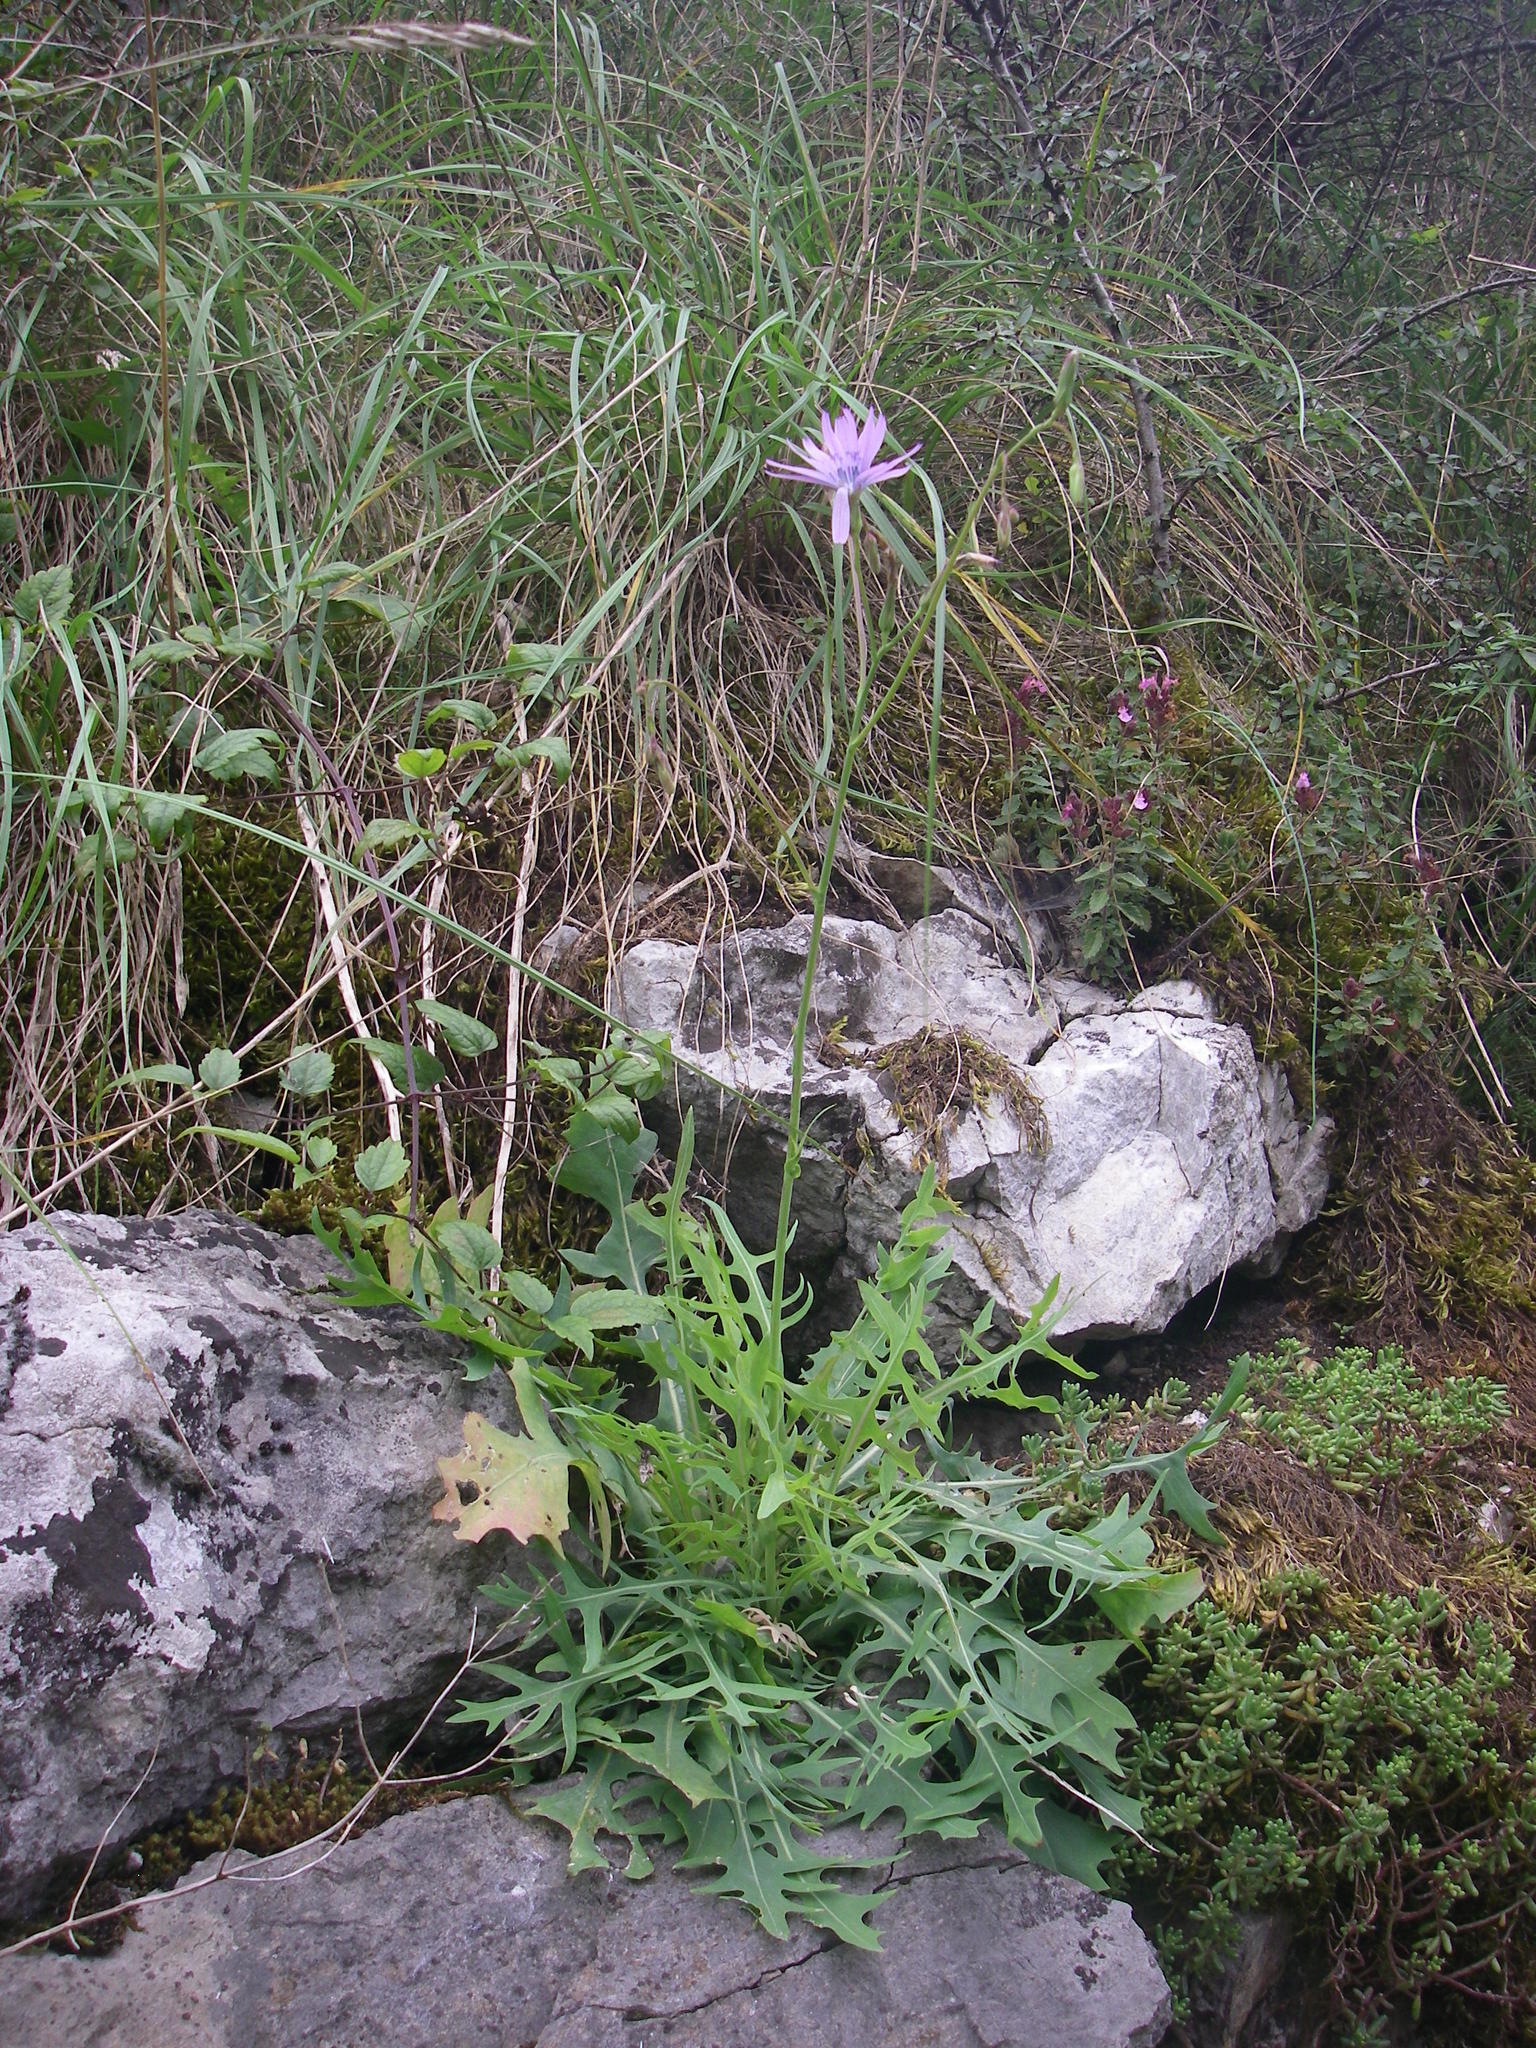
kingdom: Plantae
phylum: Tracheophyta
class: Magnoliopsida
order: Asterales
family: Asteraceae
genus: Lactuca
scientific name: Lactuca perennis
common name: Mountain lettuce
